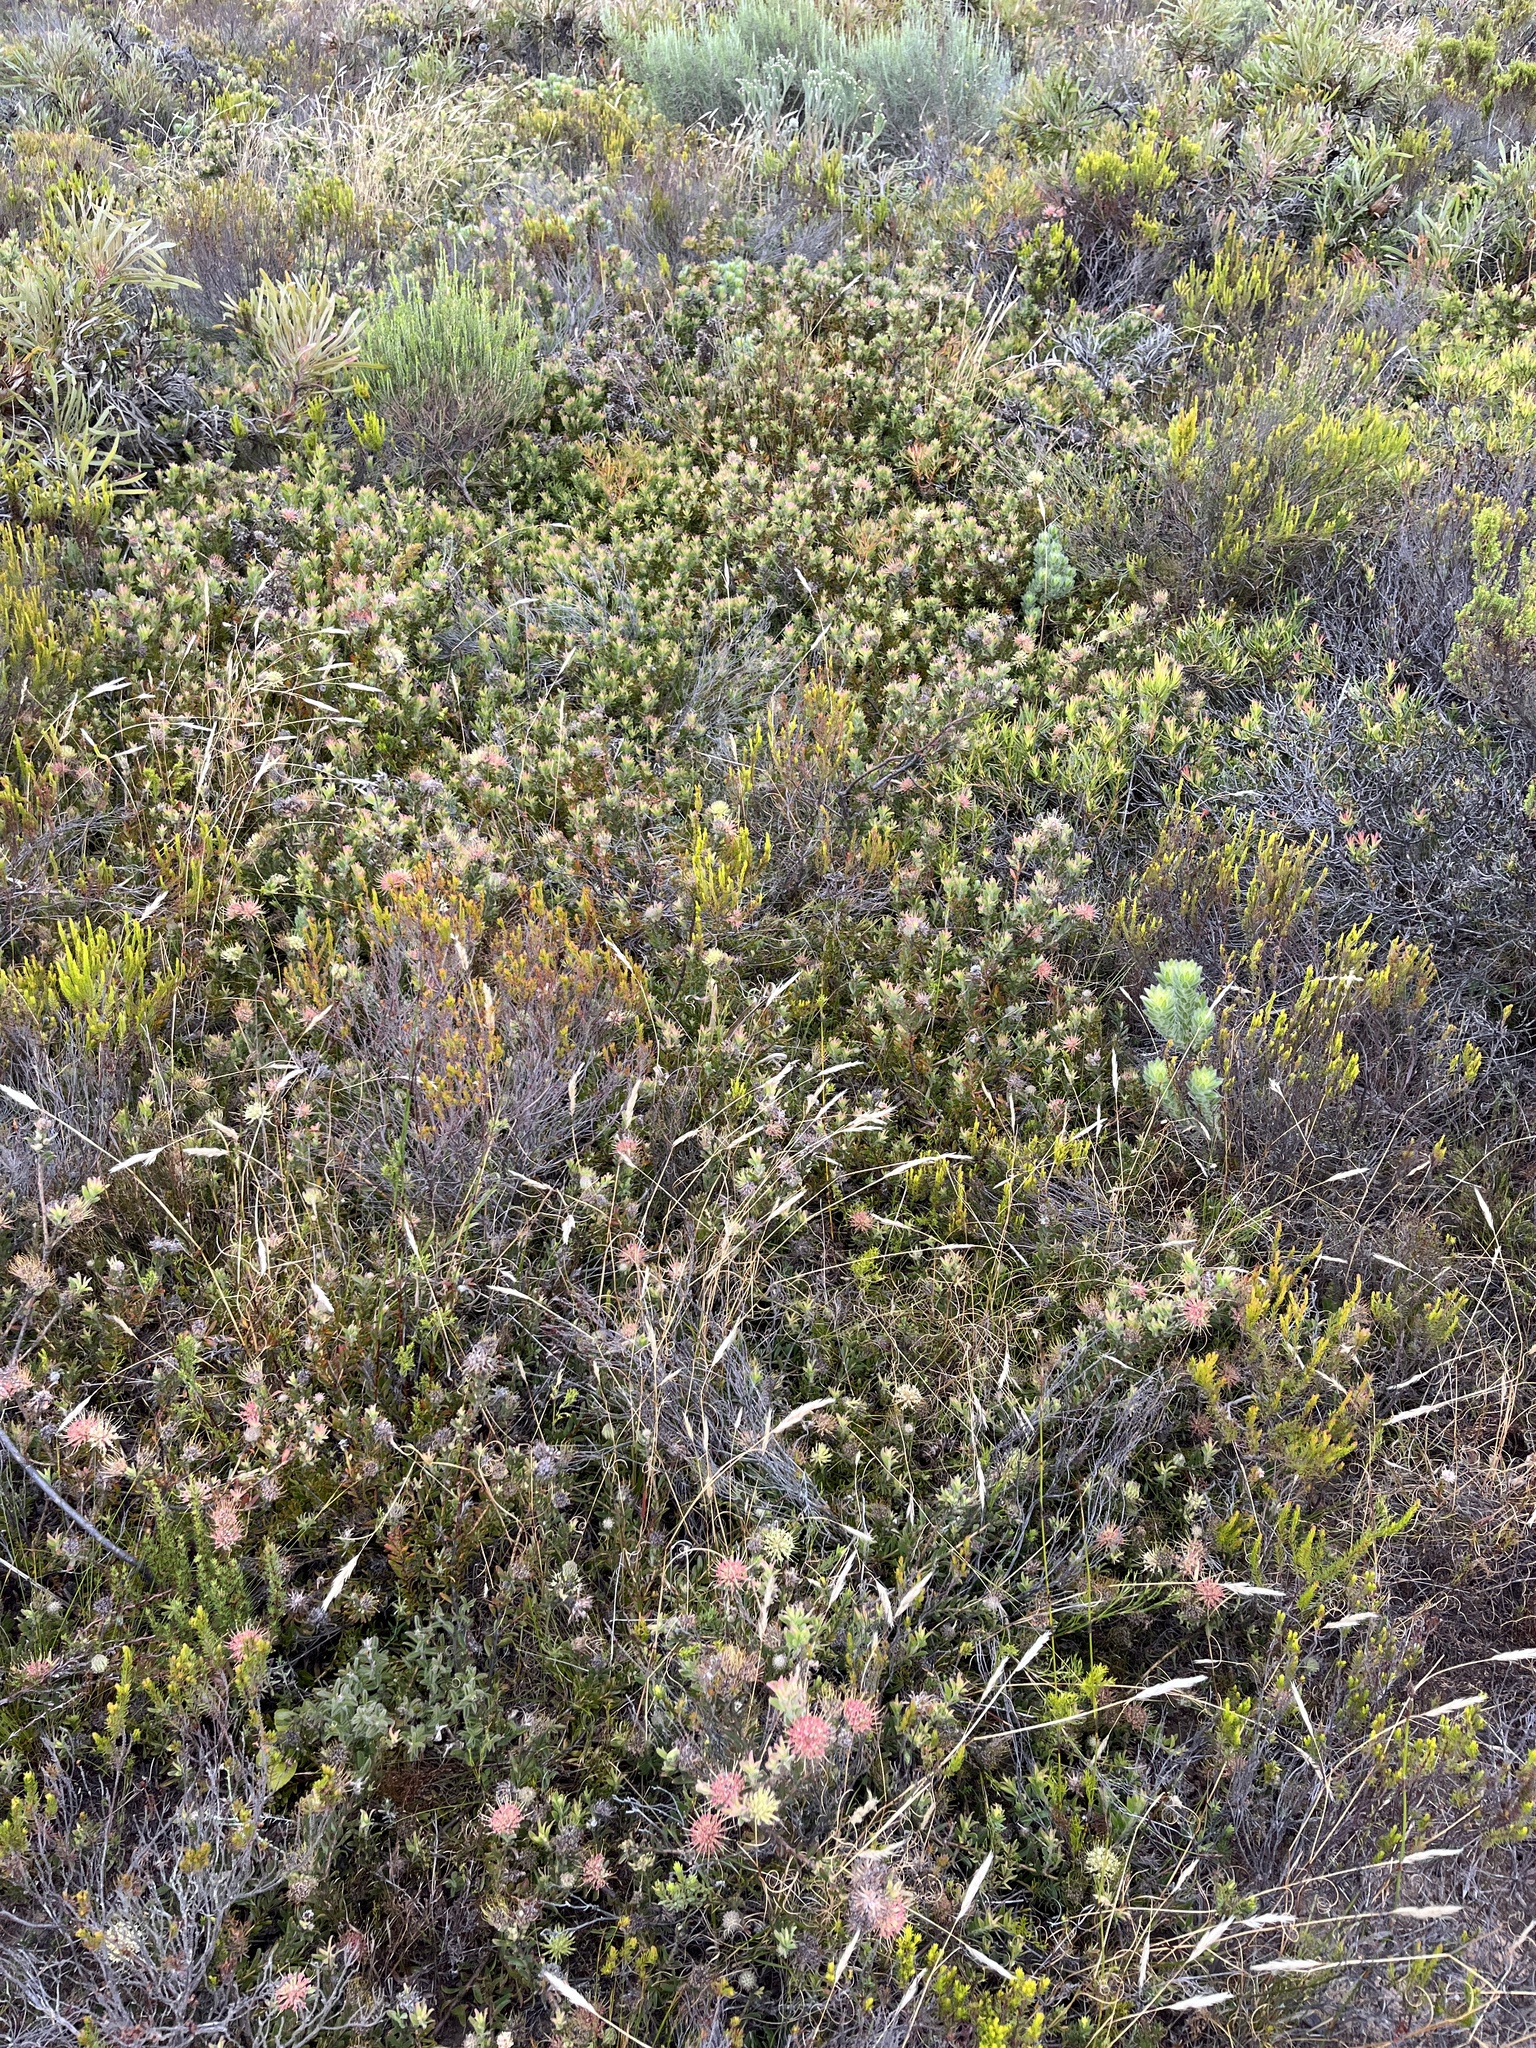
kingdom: Plantae
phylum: Tracheophyta
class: Magnoliopsida
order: Proteales
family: Proteaceae
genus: Leucospermum
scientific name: Leucospermum heterophyllum
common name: Trident pincushion
